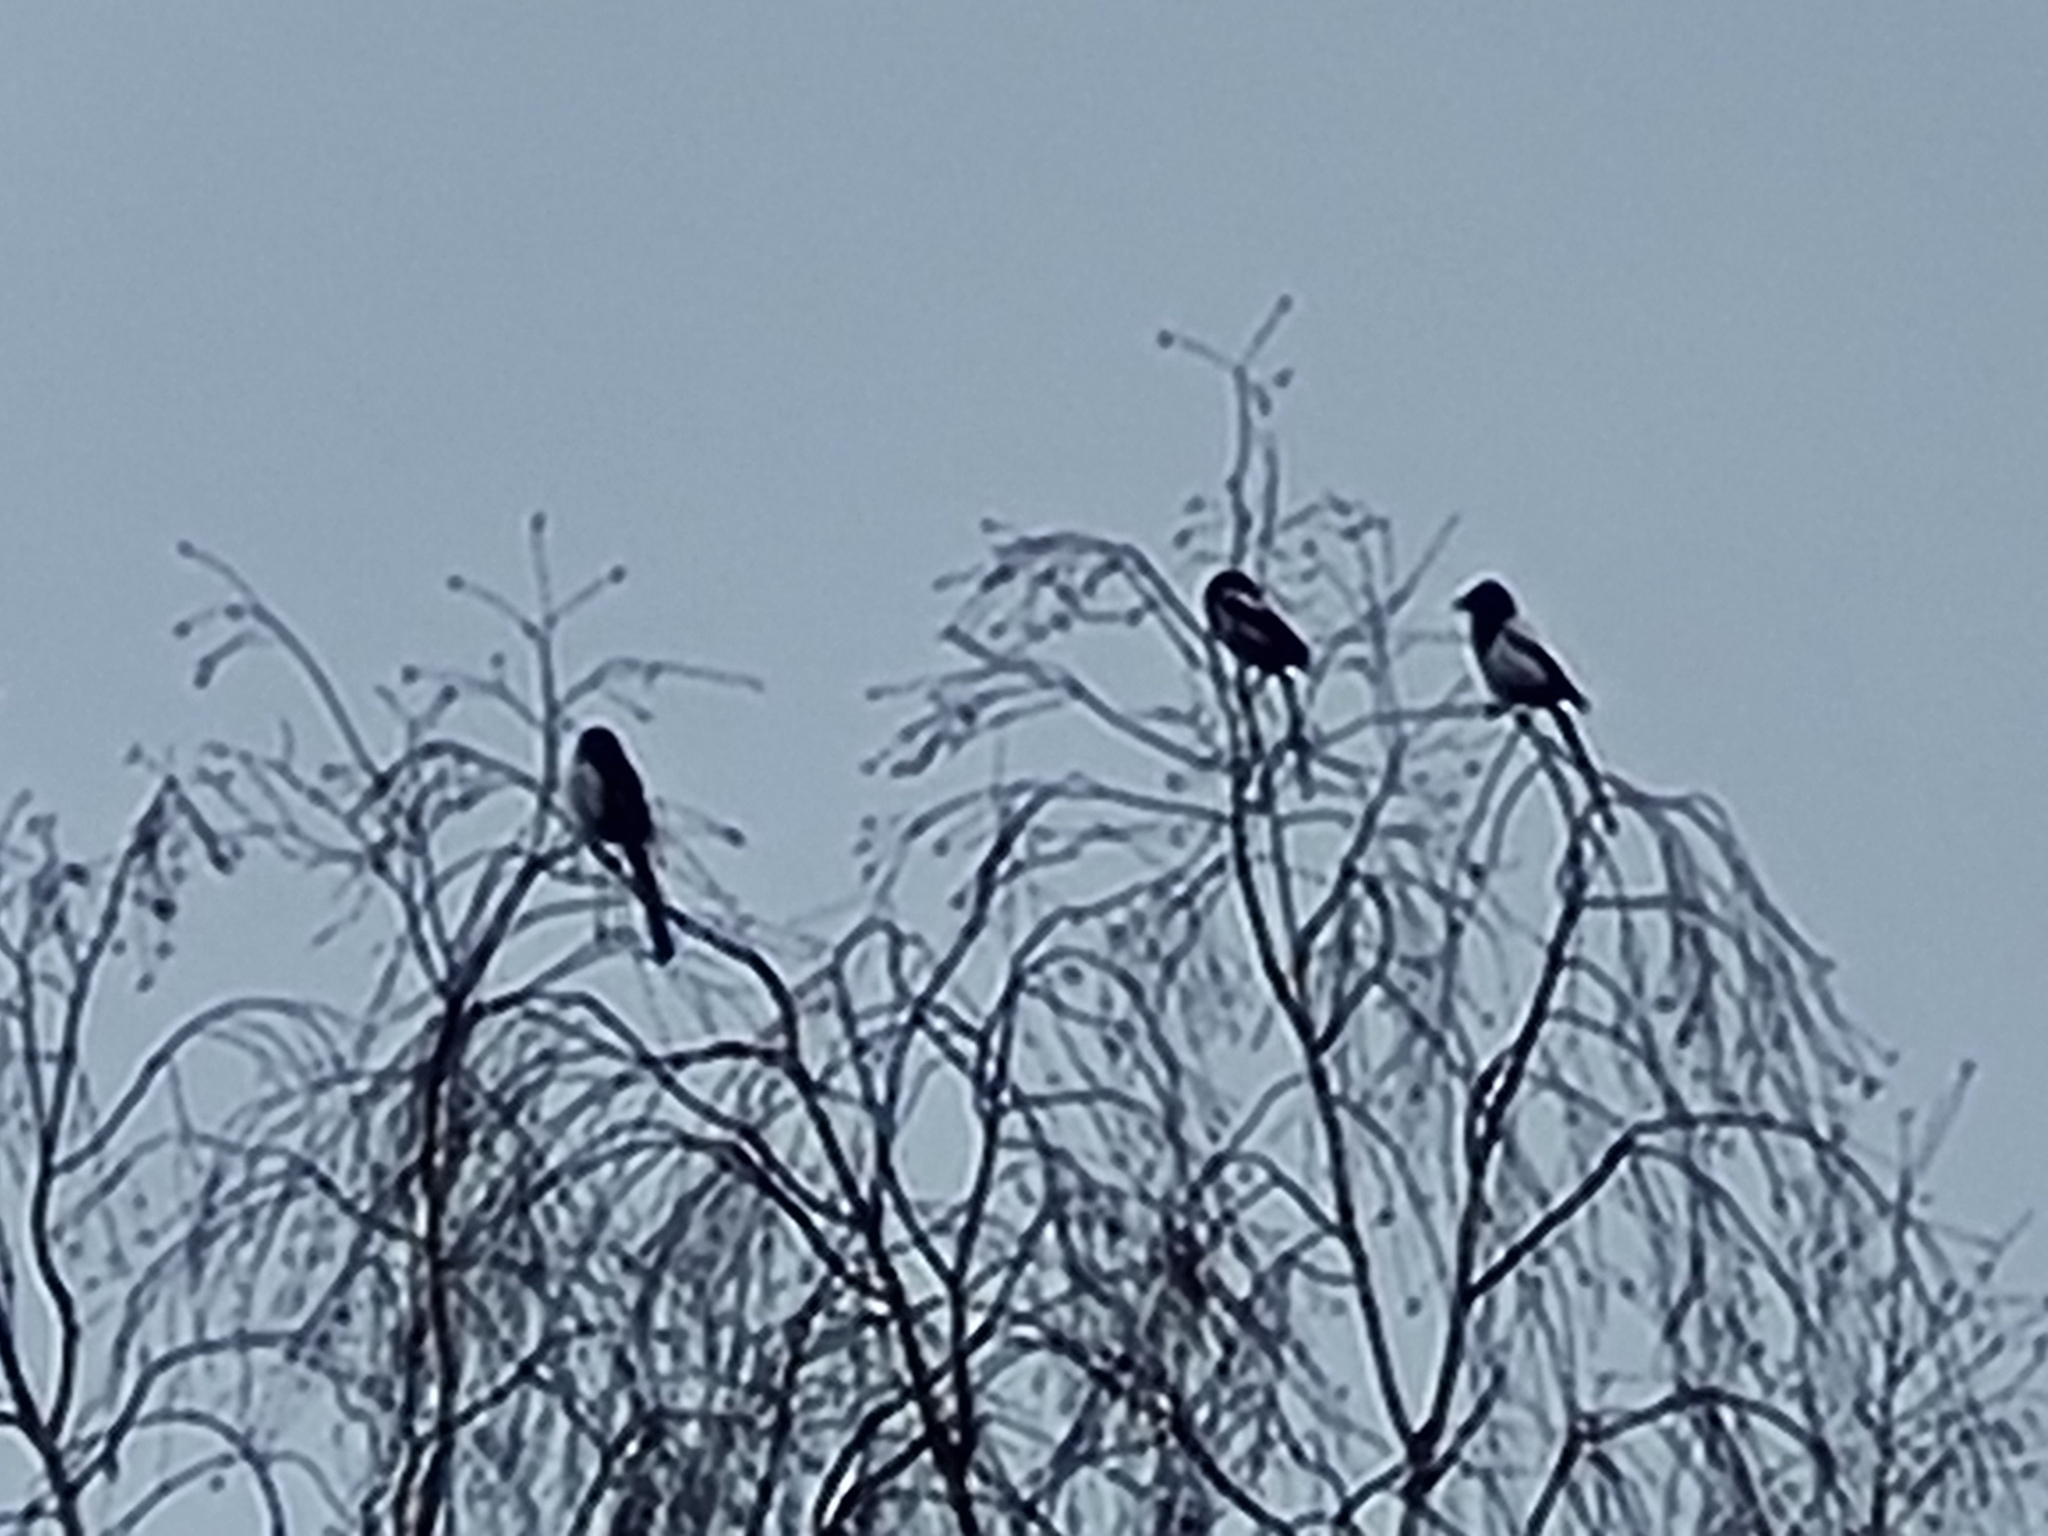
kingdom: Animalia
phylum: Chordata
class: Aves
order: Passeriformes
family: Corvidae
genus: Pica
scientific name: Pica pica
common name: Eurasian magpie
